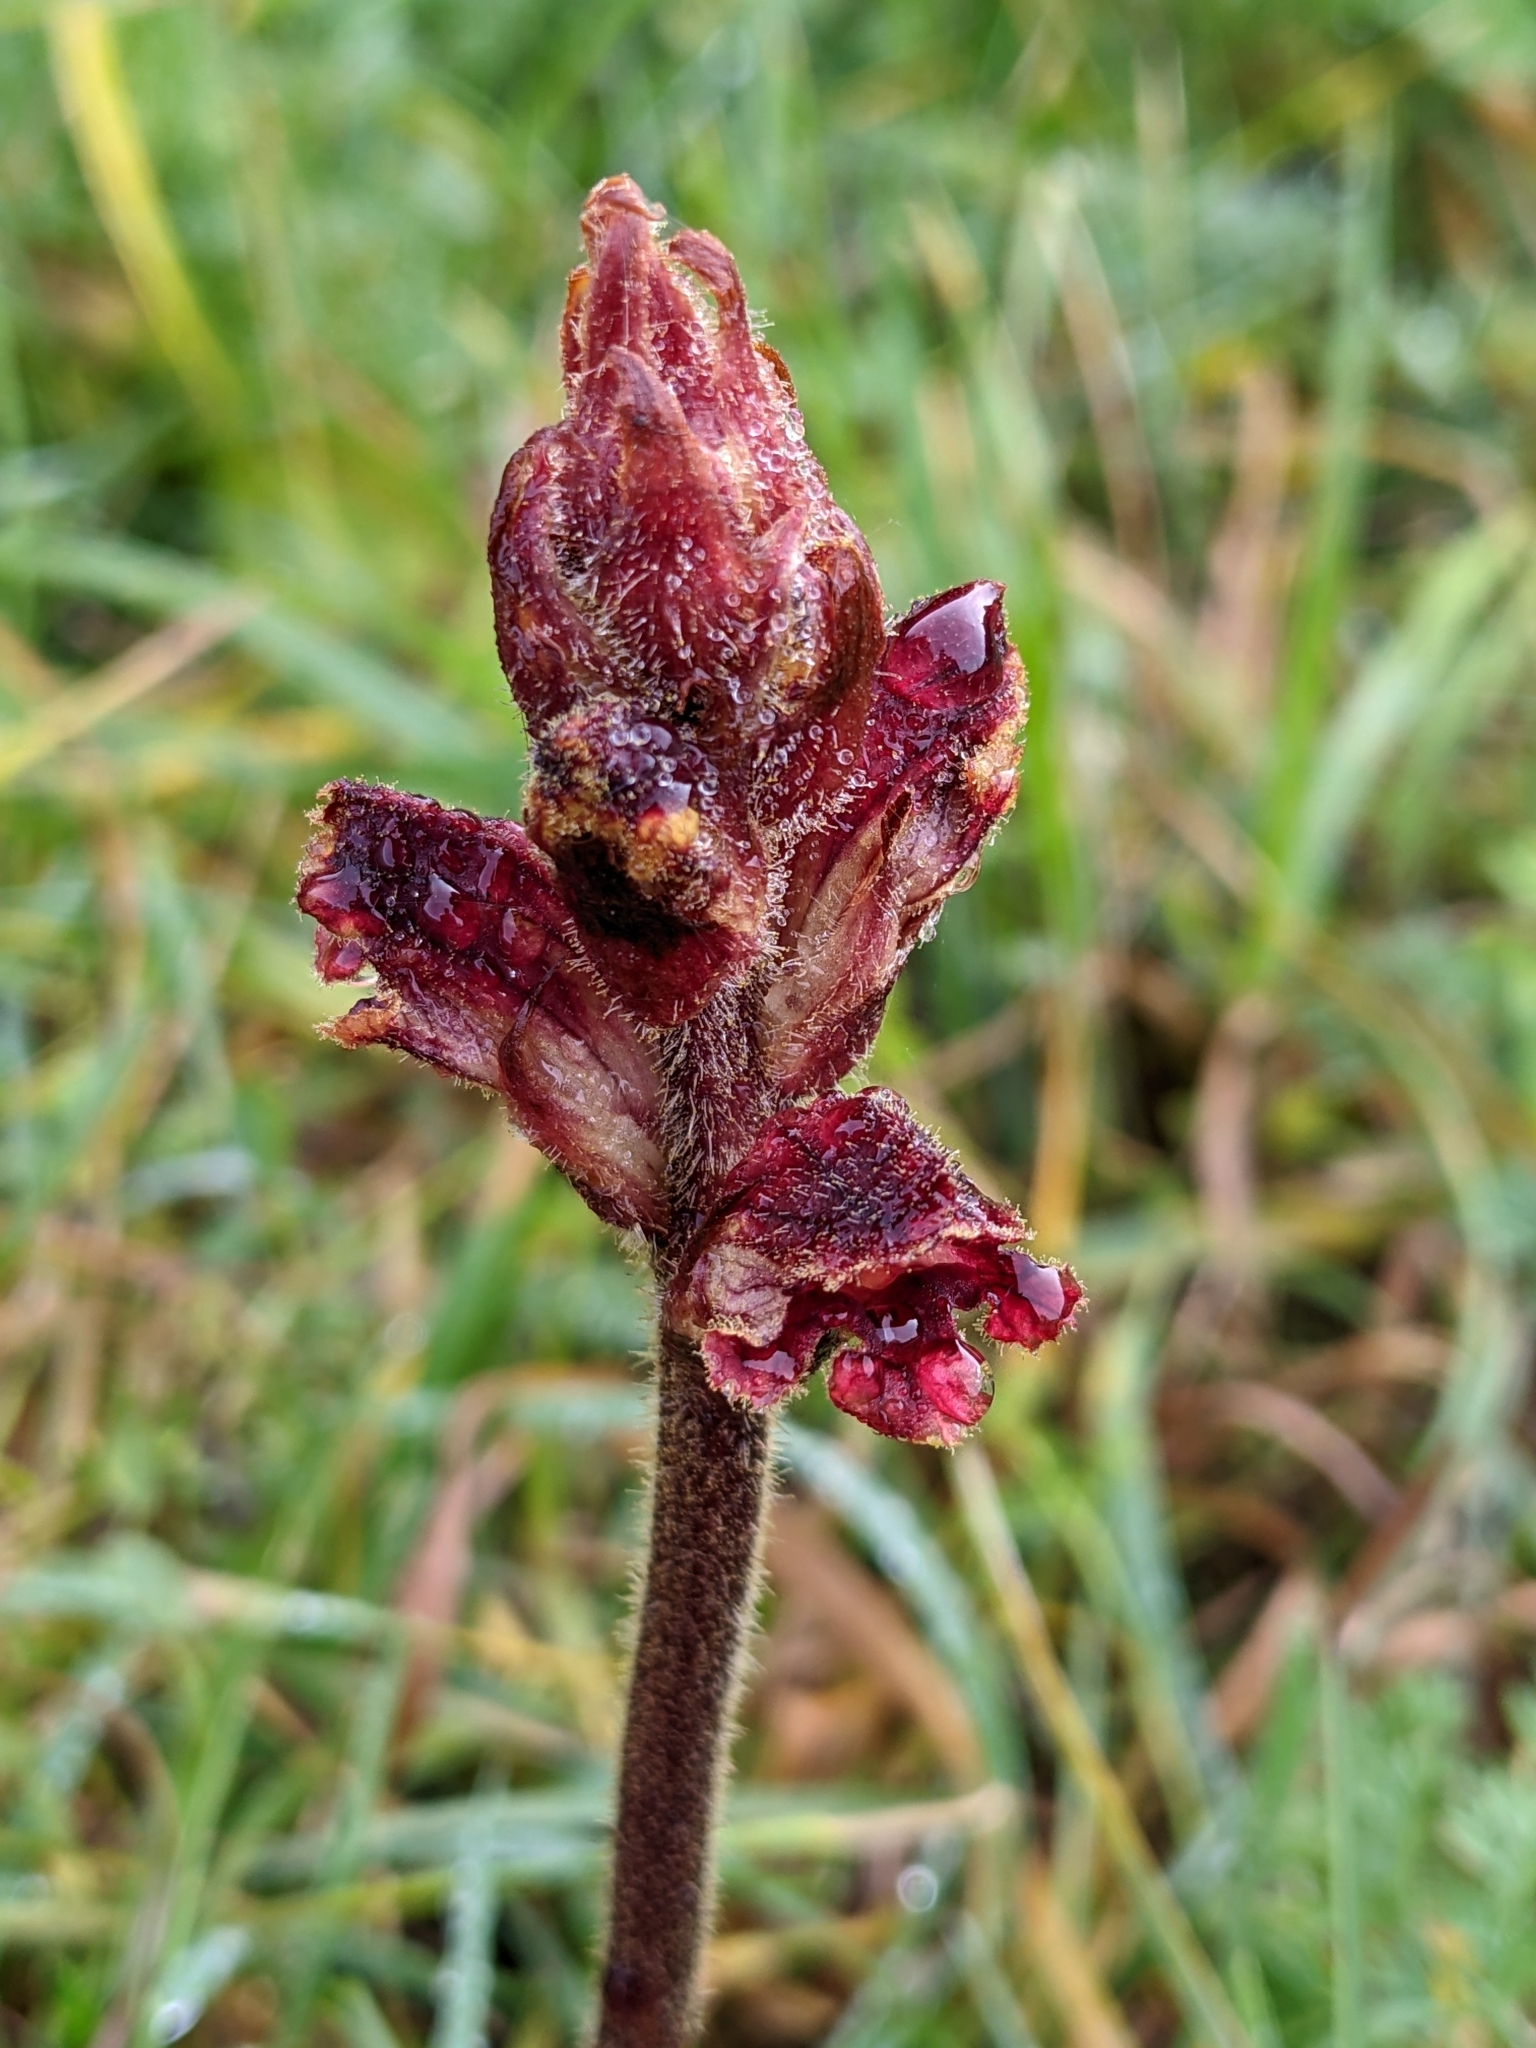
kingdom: Plantae
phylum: Tracheophyta
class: Magnoliopsida
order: Lamiales
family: Orobanchaceae
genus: Orobanche
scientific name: Orobanche gracilis
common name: Slender broomrape
